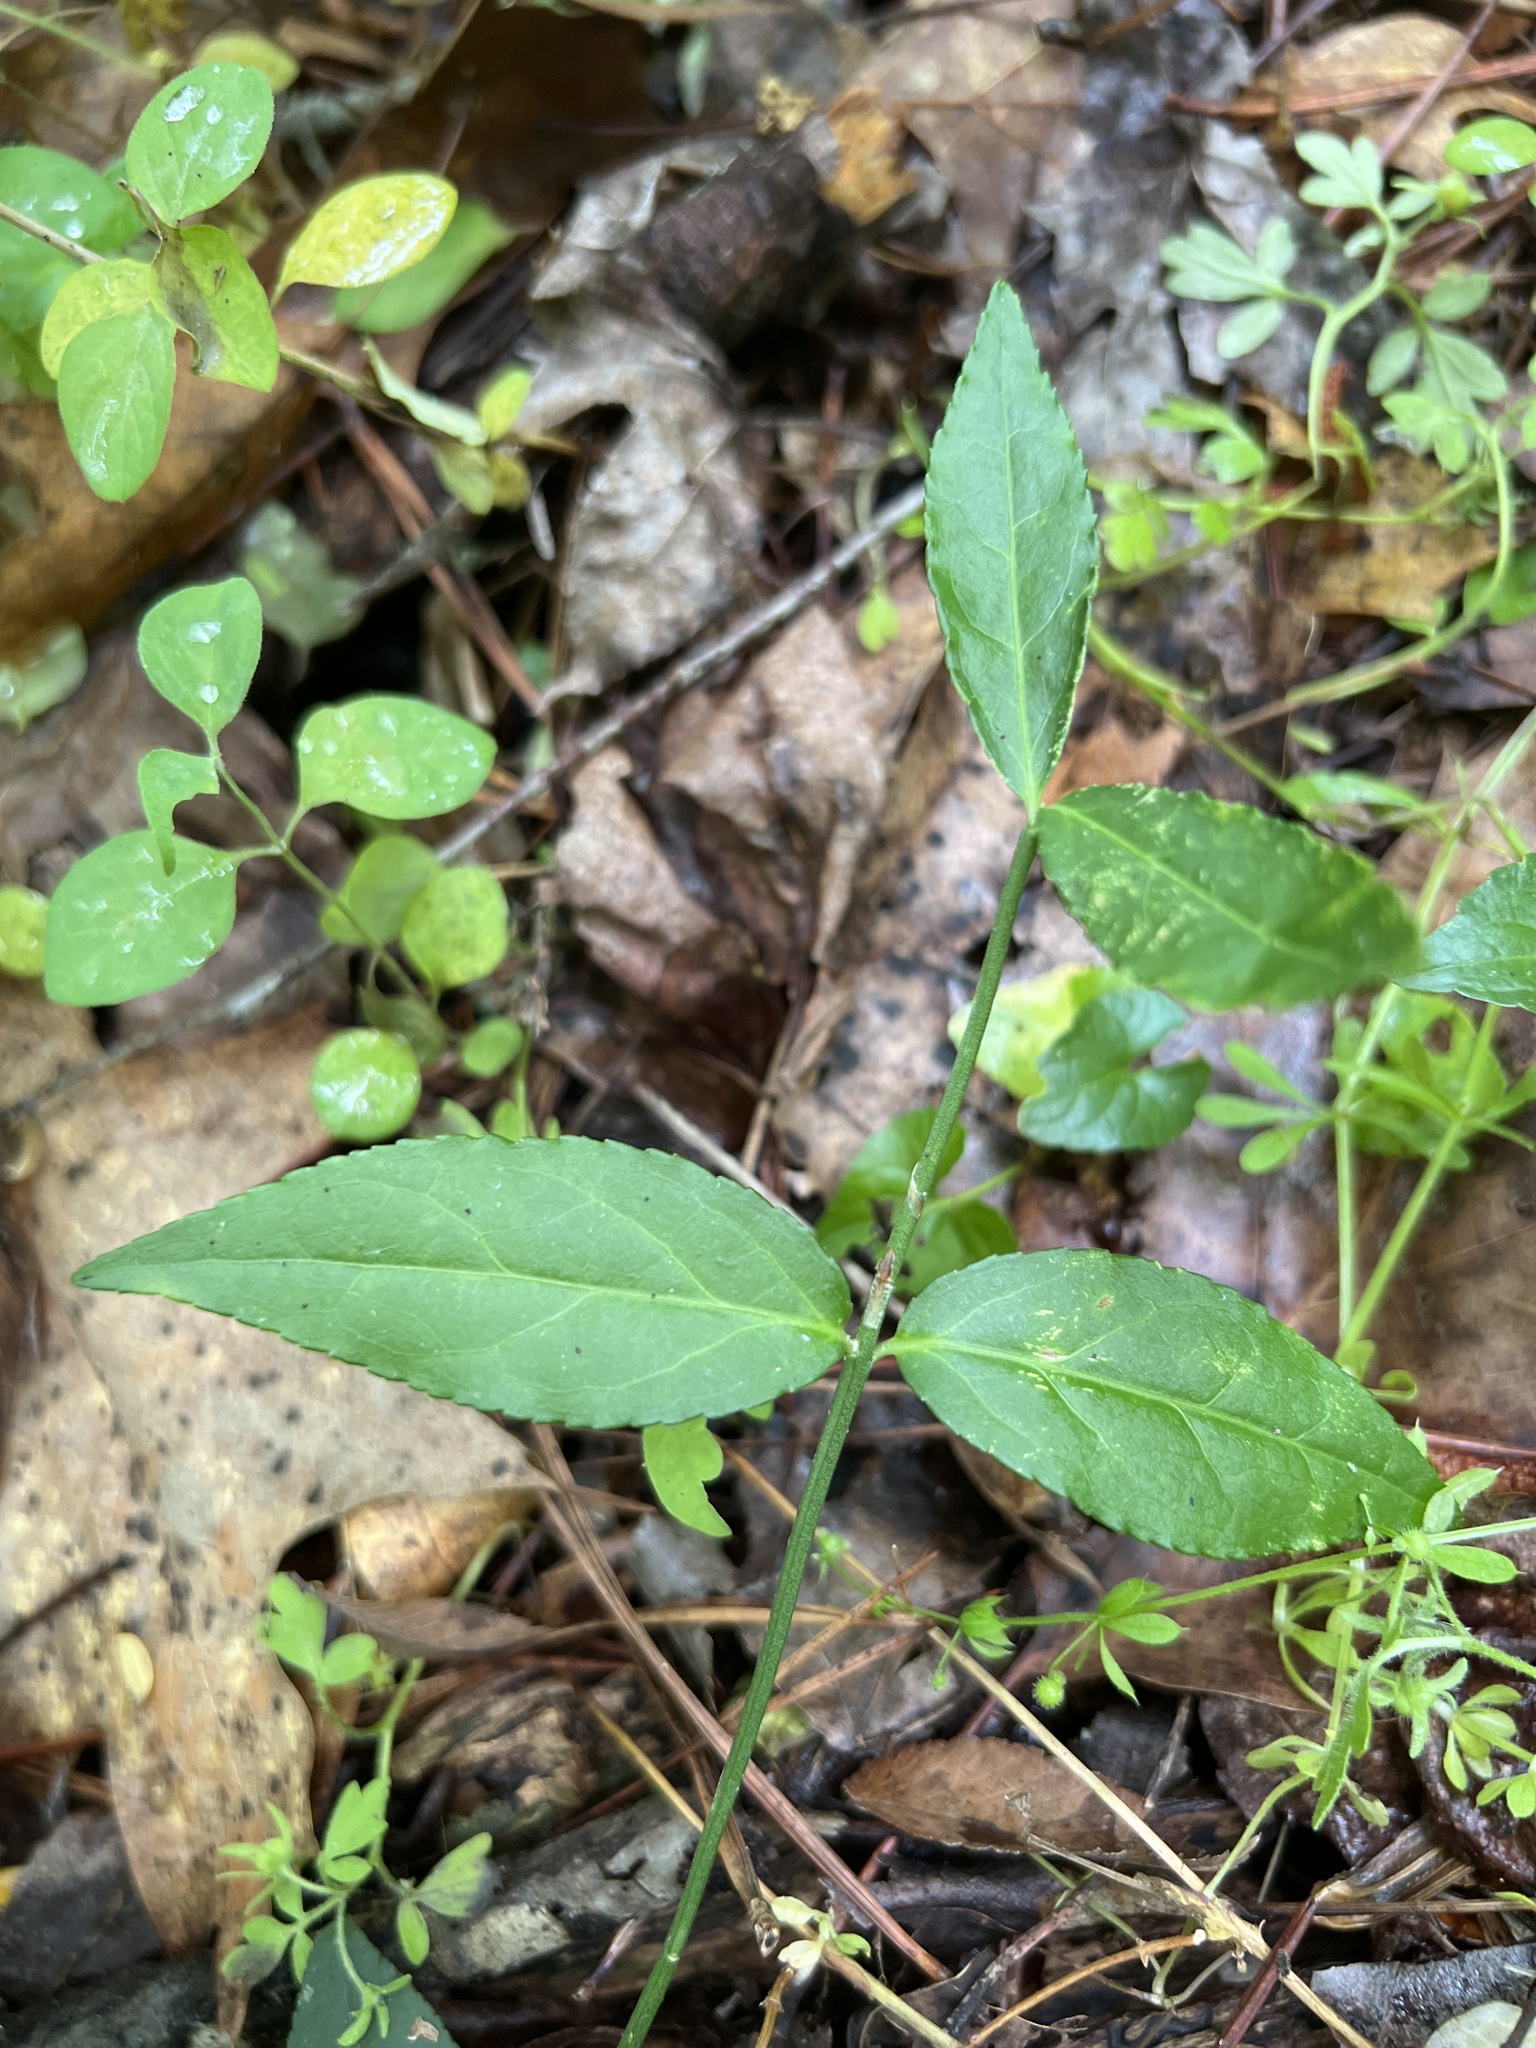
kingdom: Plantae
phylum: Tracheophyta
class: Magnoliopsida
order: Celastrales
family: Celastraceae
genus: Euonymus
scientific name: Euonymus americanus
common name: Bursting-heart
